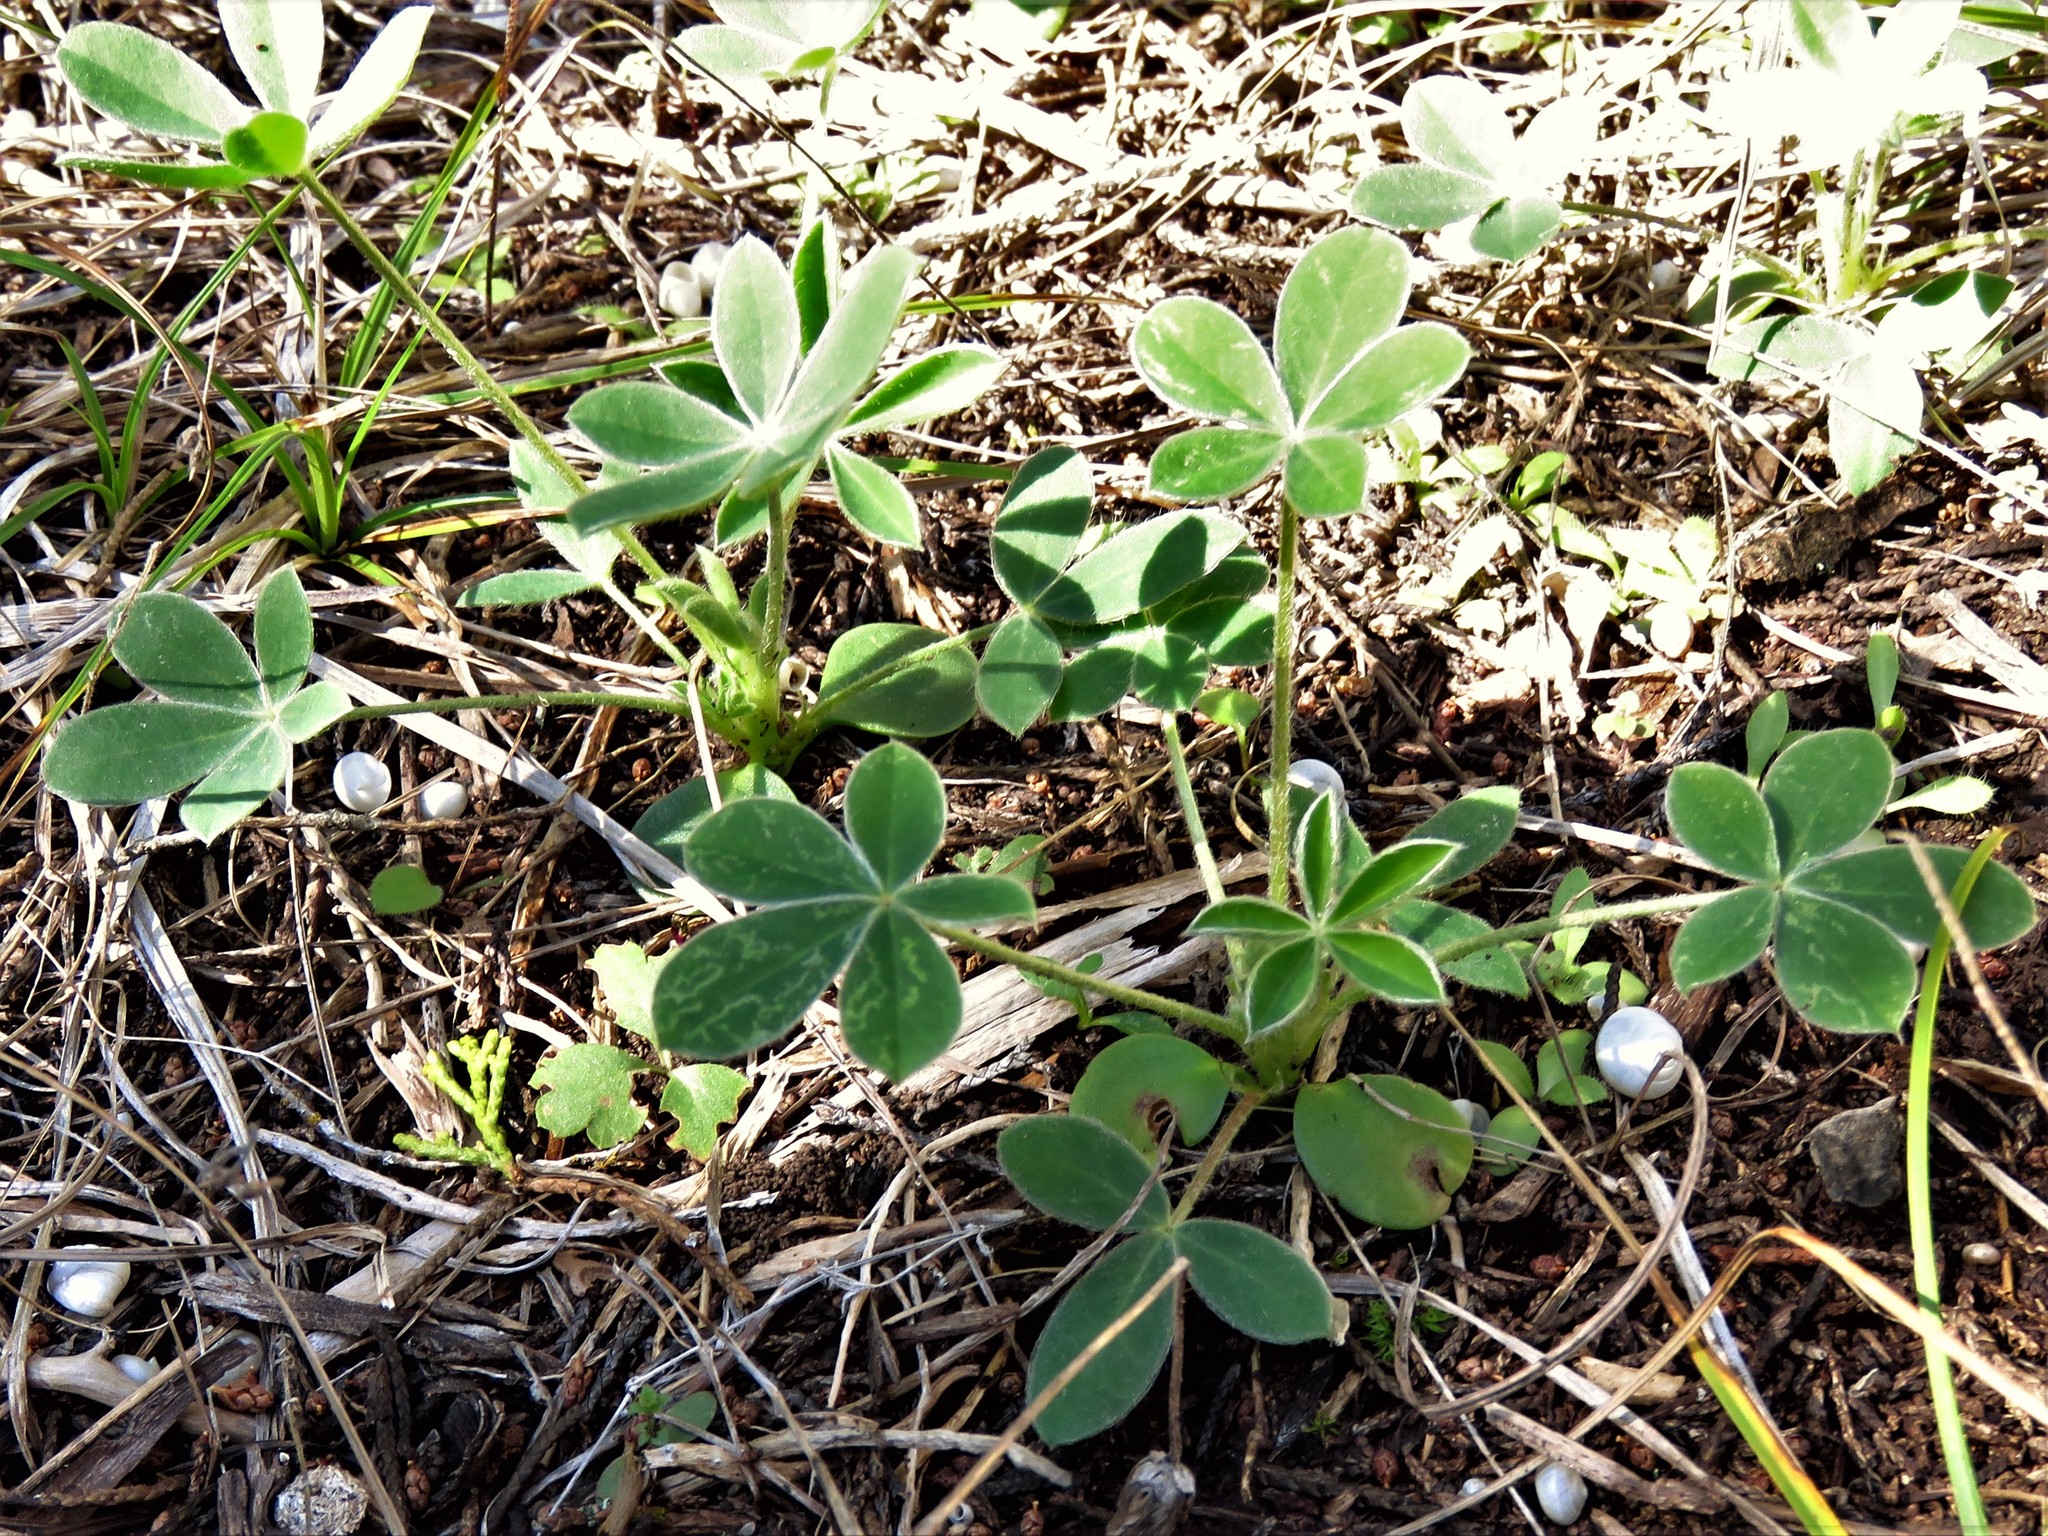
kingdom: Plantae
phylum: Tracheophyta
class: Magnoliopsida
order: Fabales
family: Fabaceae
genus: Lupinus
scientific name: Lupinus texensis
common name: Texas bluebonnet
